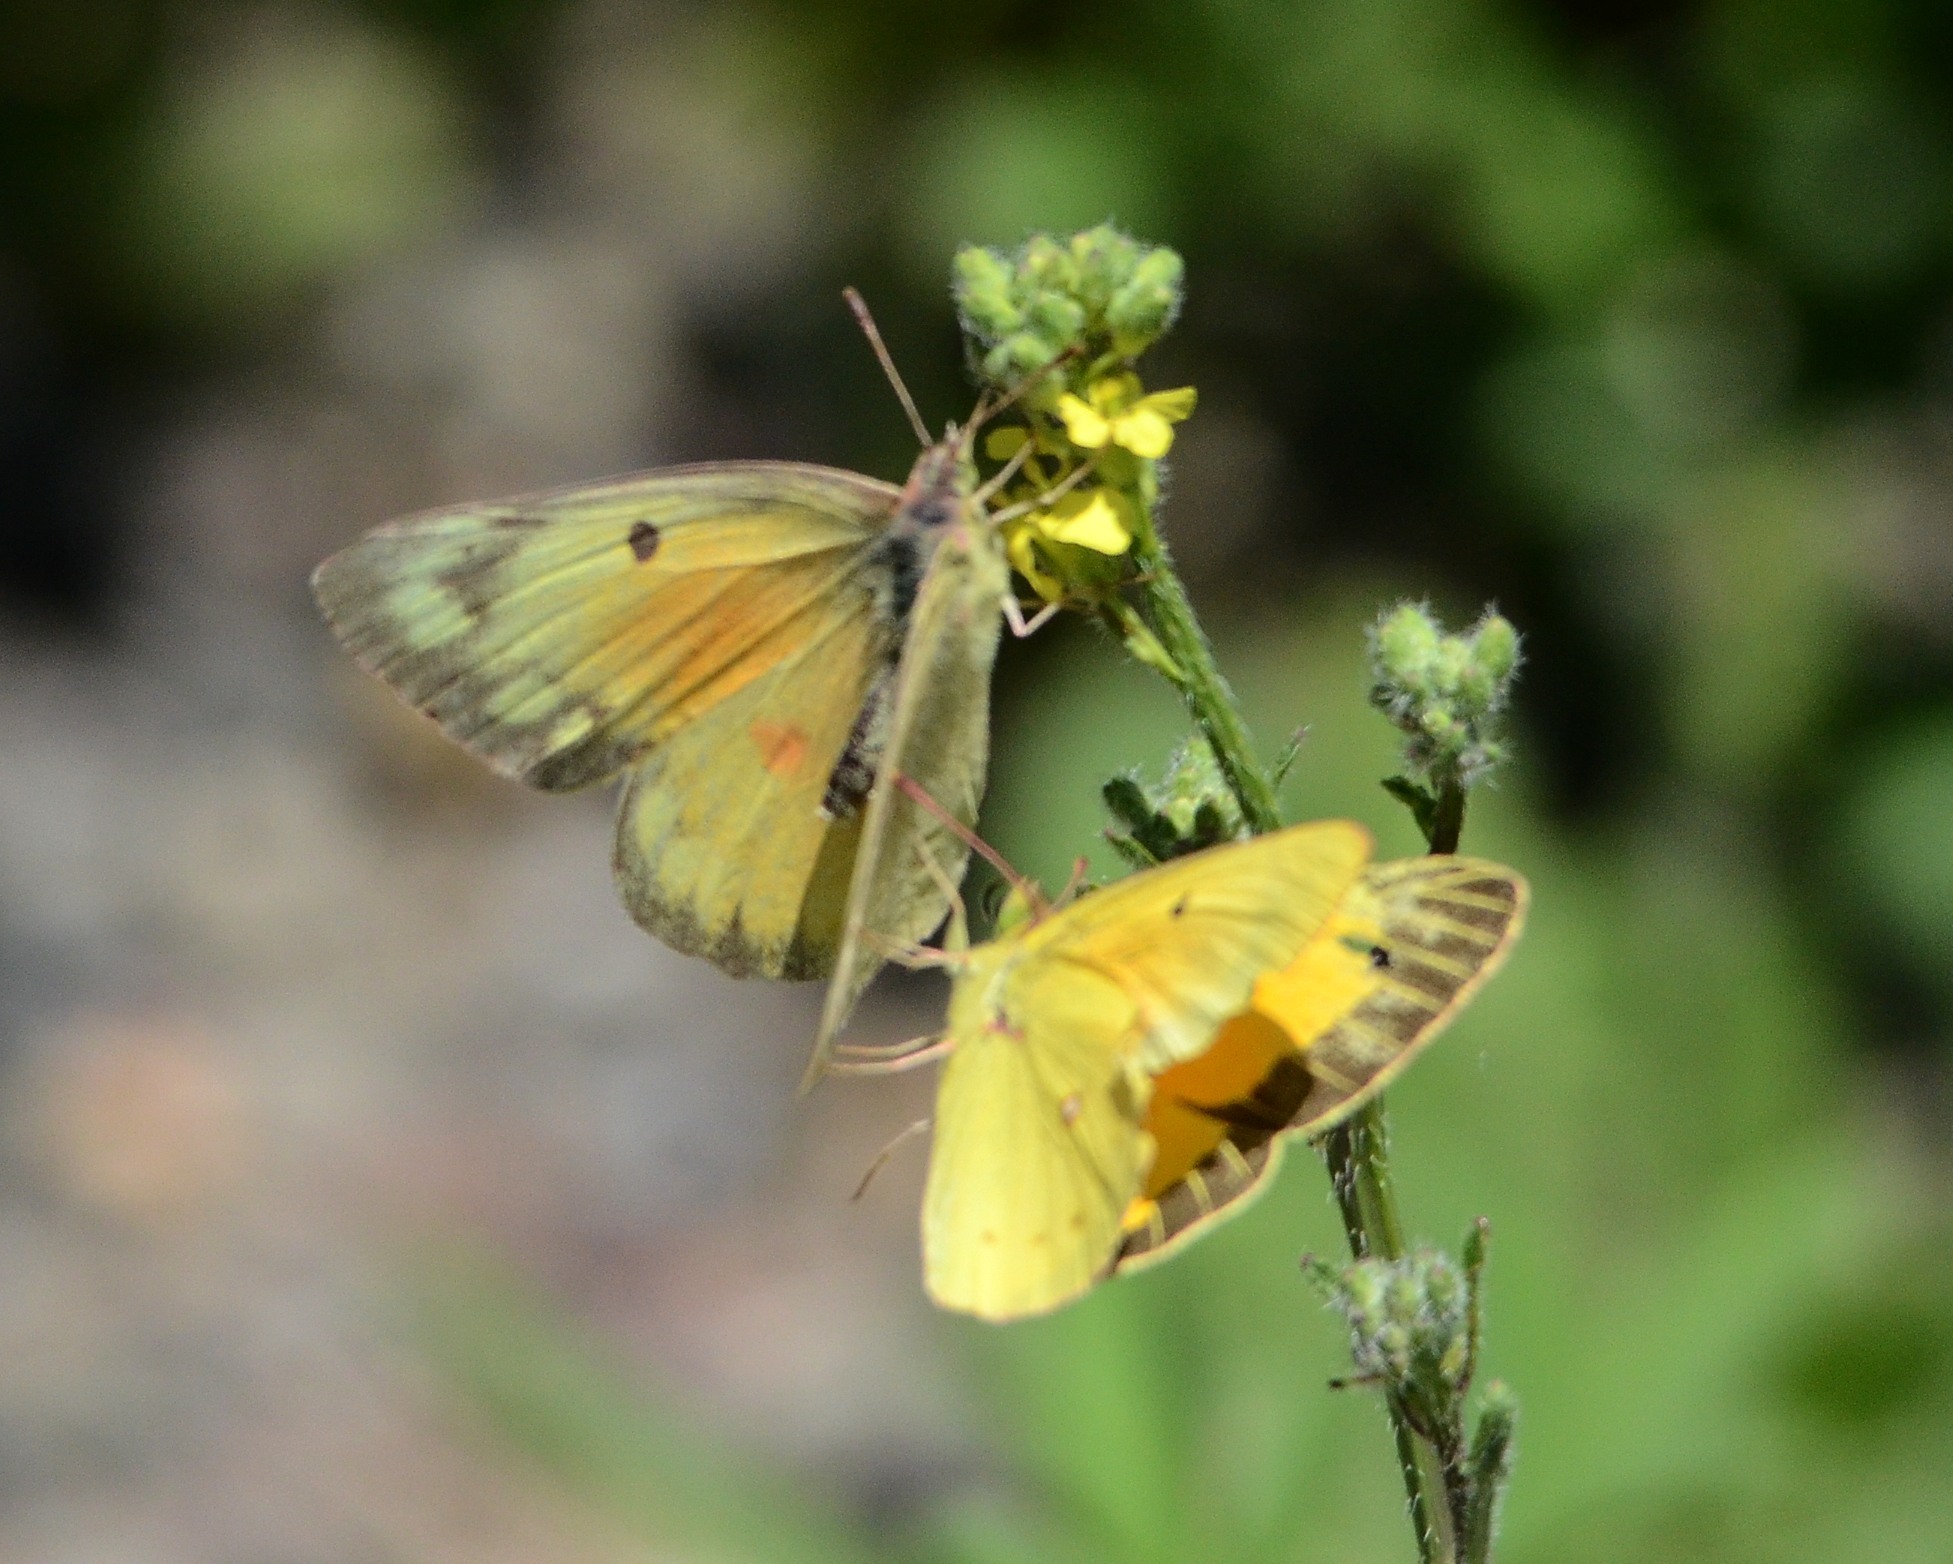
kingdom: Animalia
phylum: Arthropoda
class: Insecta
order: Lepidoptera
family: Pieridae
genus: Colias
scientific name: Colias eurytheme
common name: Alfalfa butterfly
